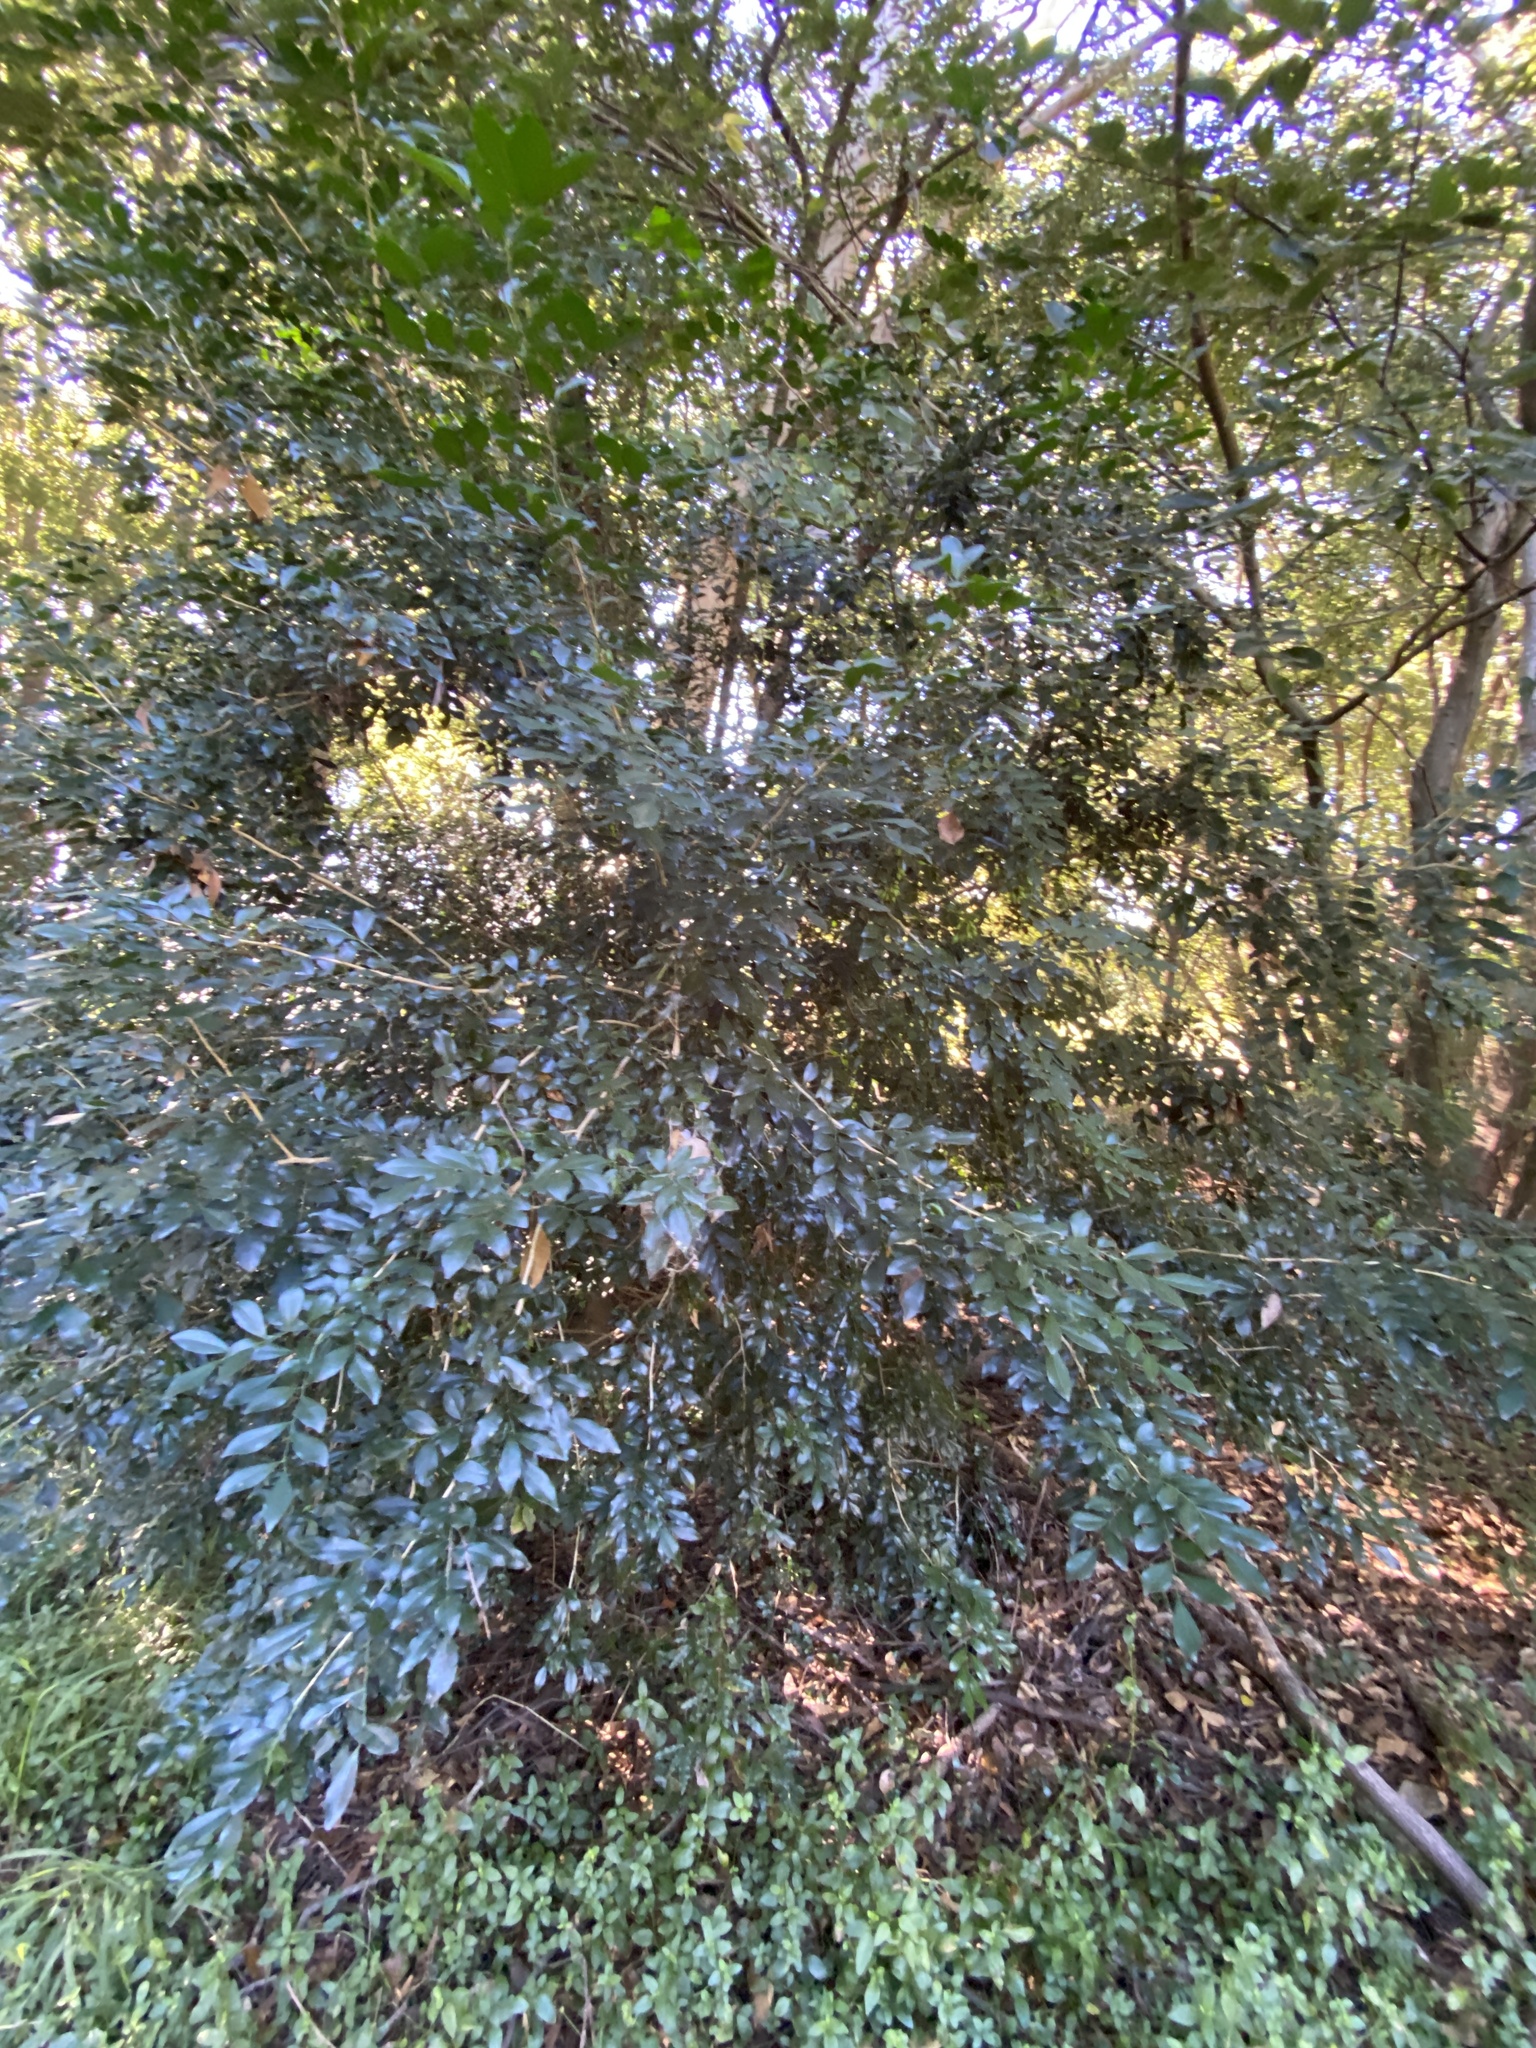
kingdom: Plantae
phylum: Tracheophyta
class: Magnoliopsida
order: Sapindales
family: Rutaceae
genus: Murraya
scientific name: Murraya paniculata
